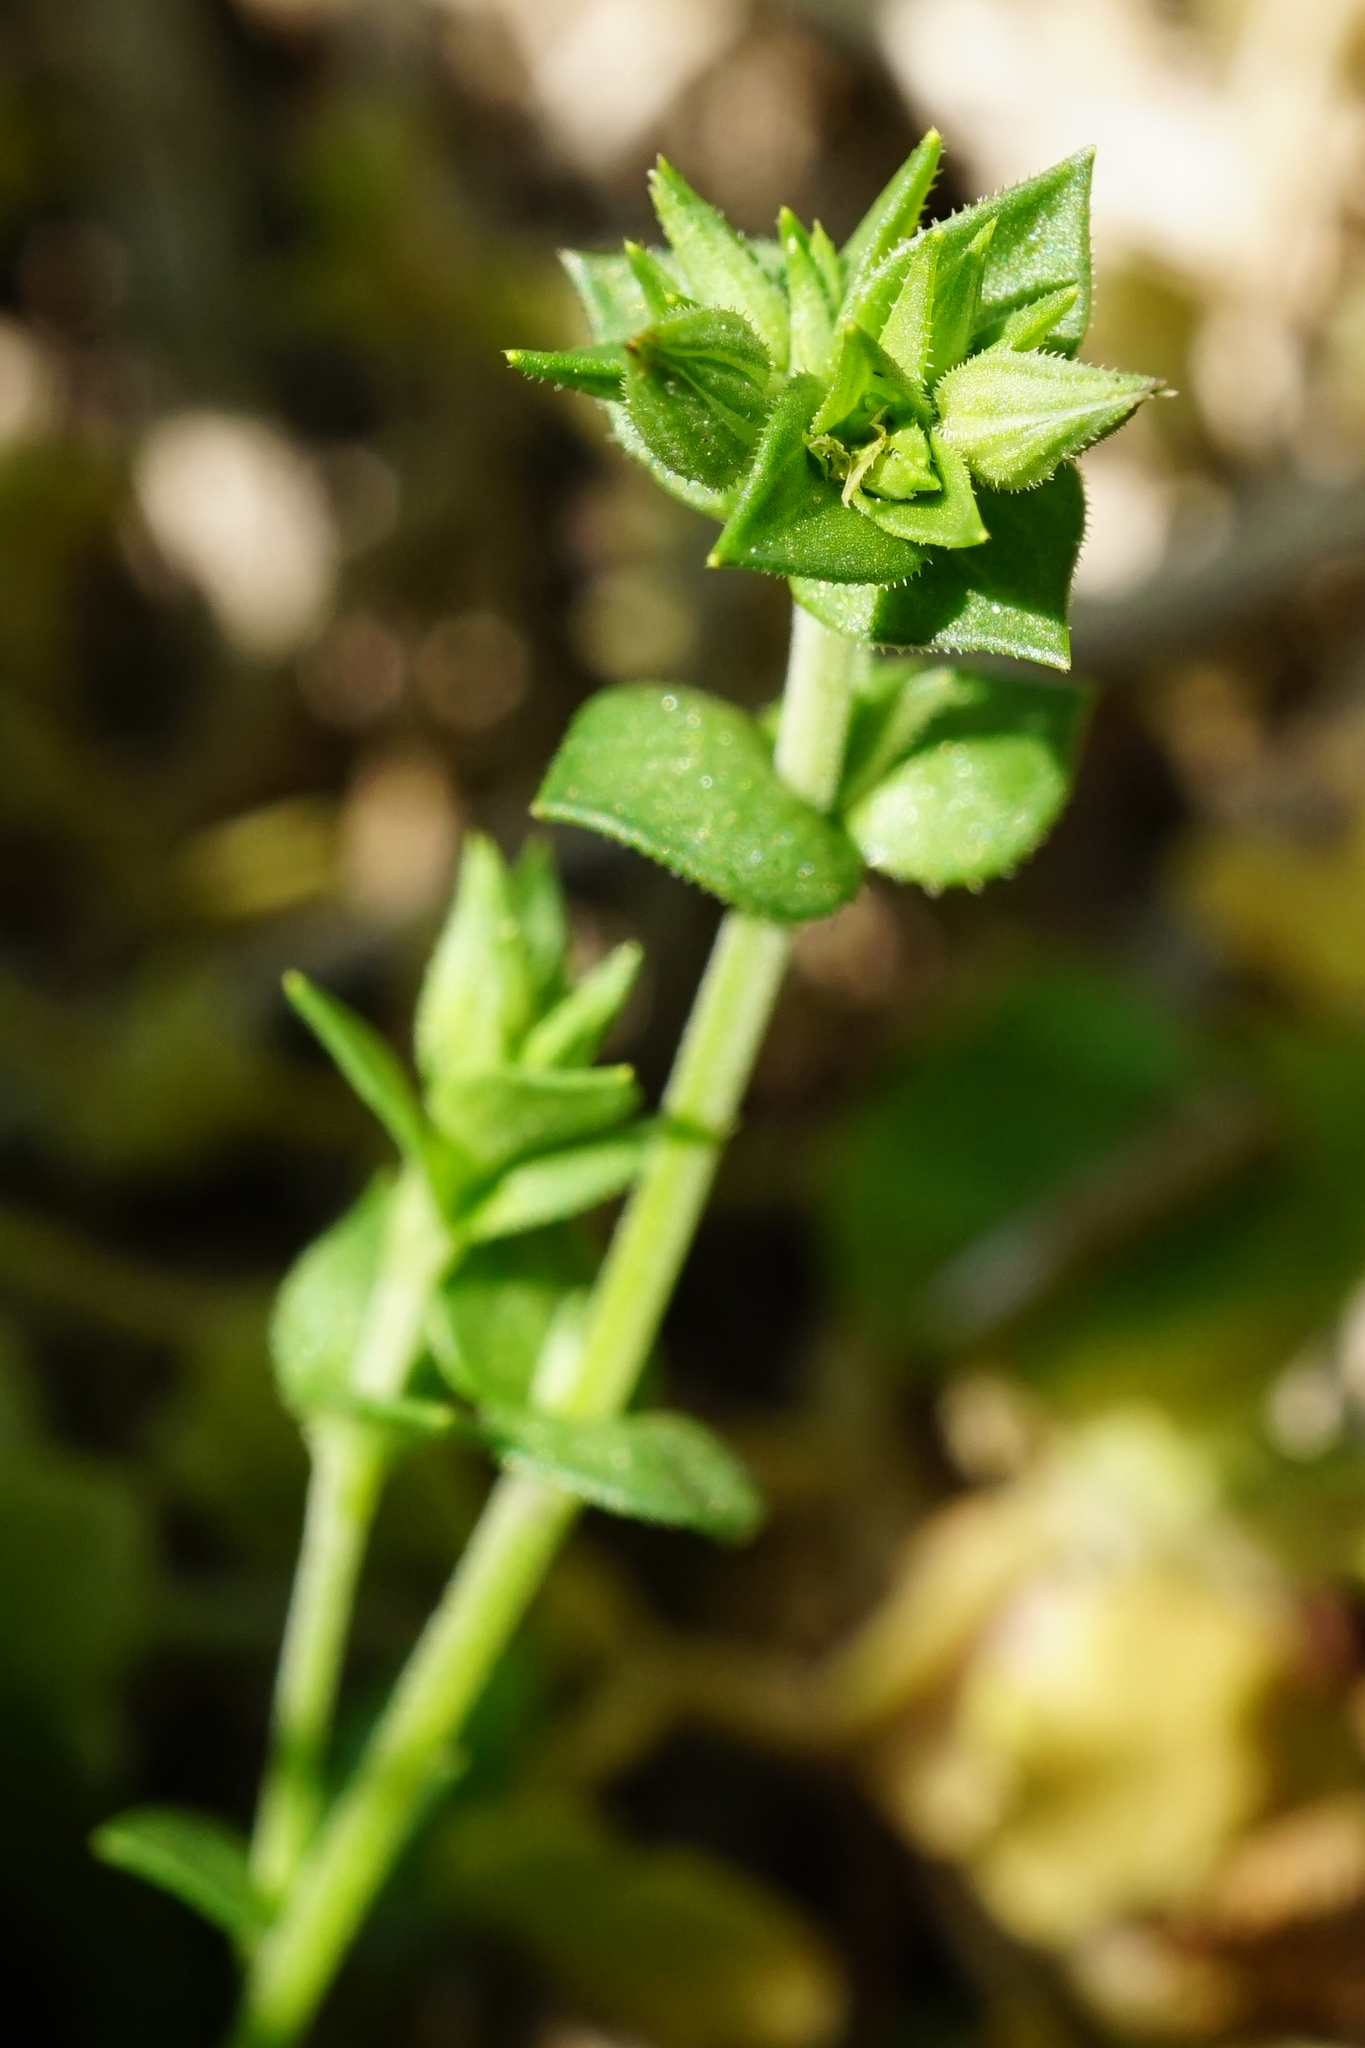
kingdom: Plantae
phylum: Tracheophyta
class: Magnoliopsida
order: Caryophyllales
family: Caryophyllaceae
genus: Arenaria
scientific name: Arenaria serpyllifolia
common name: Thyme-leaved sandwort
